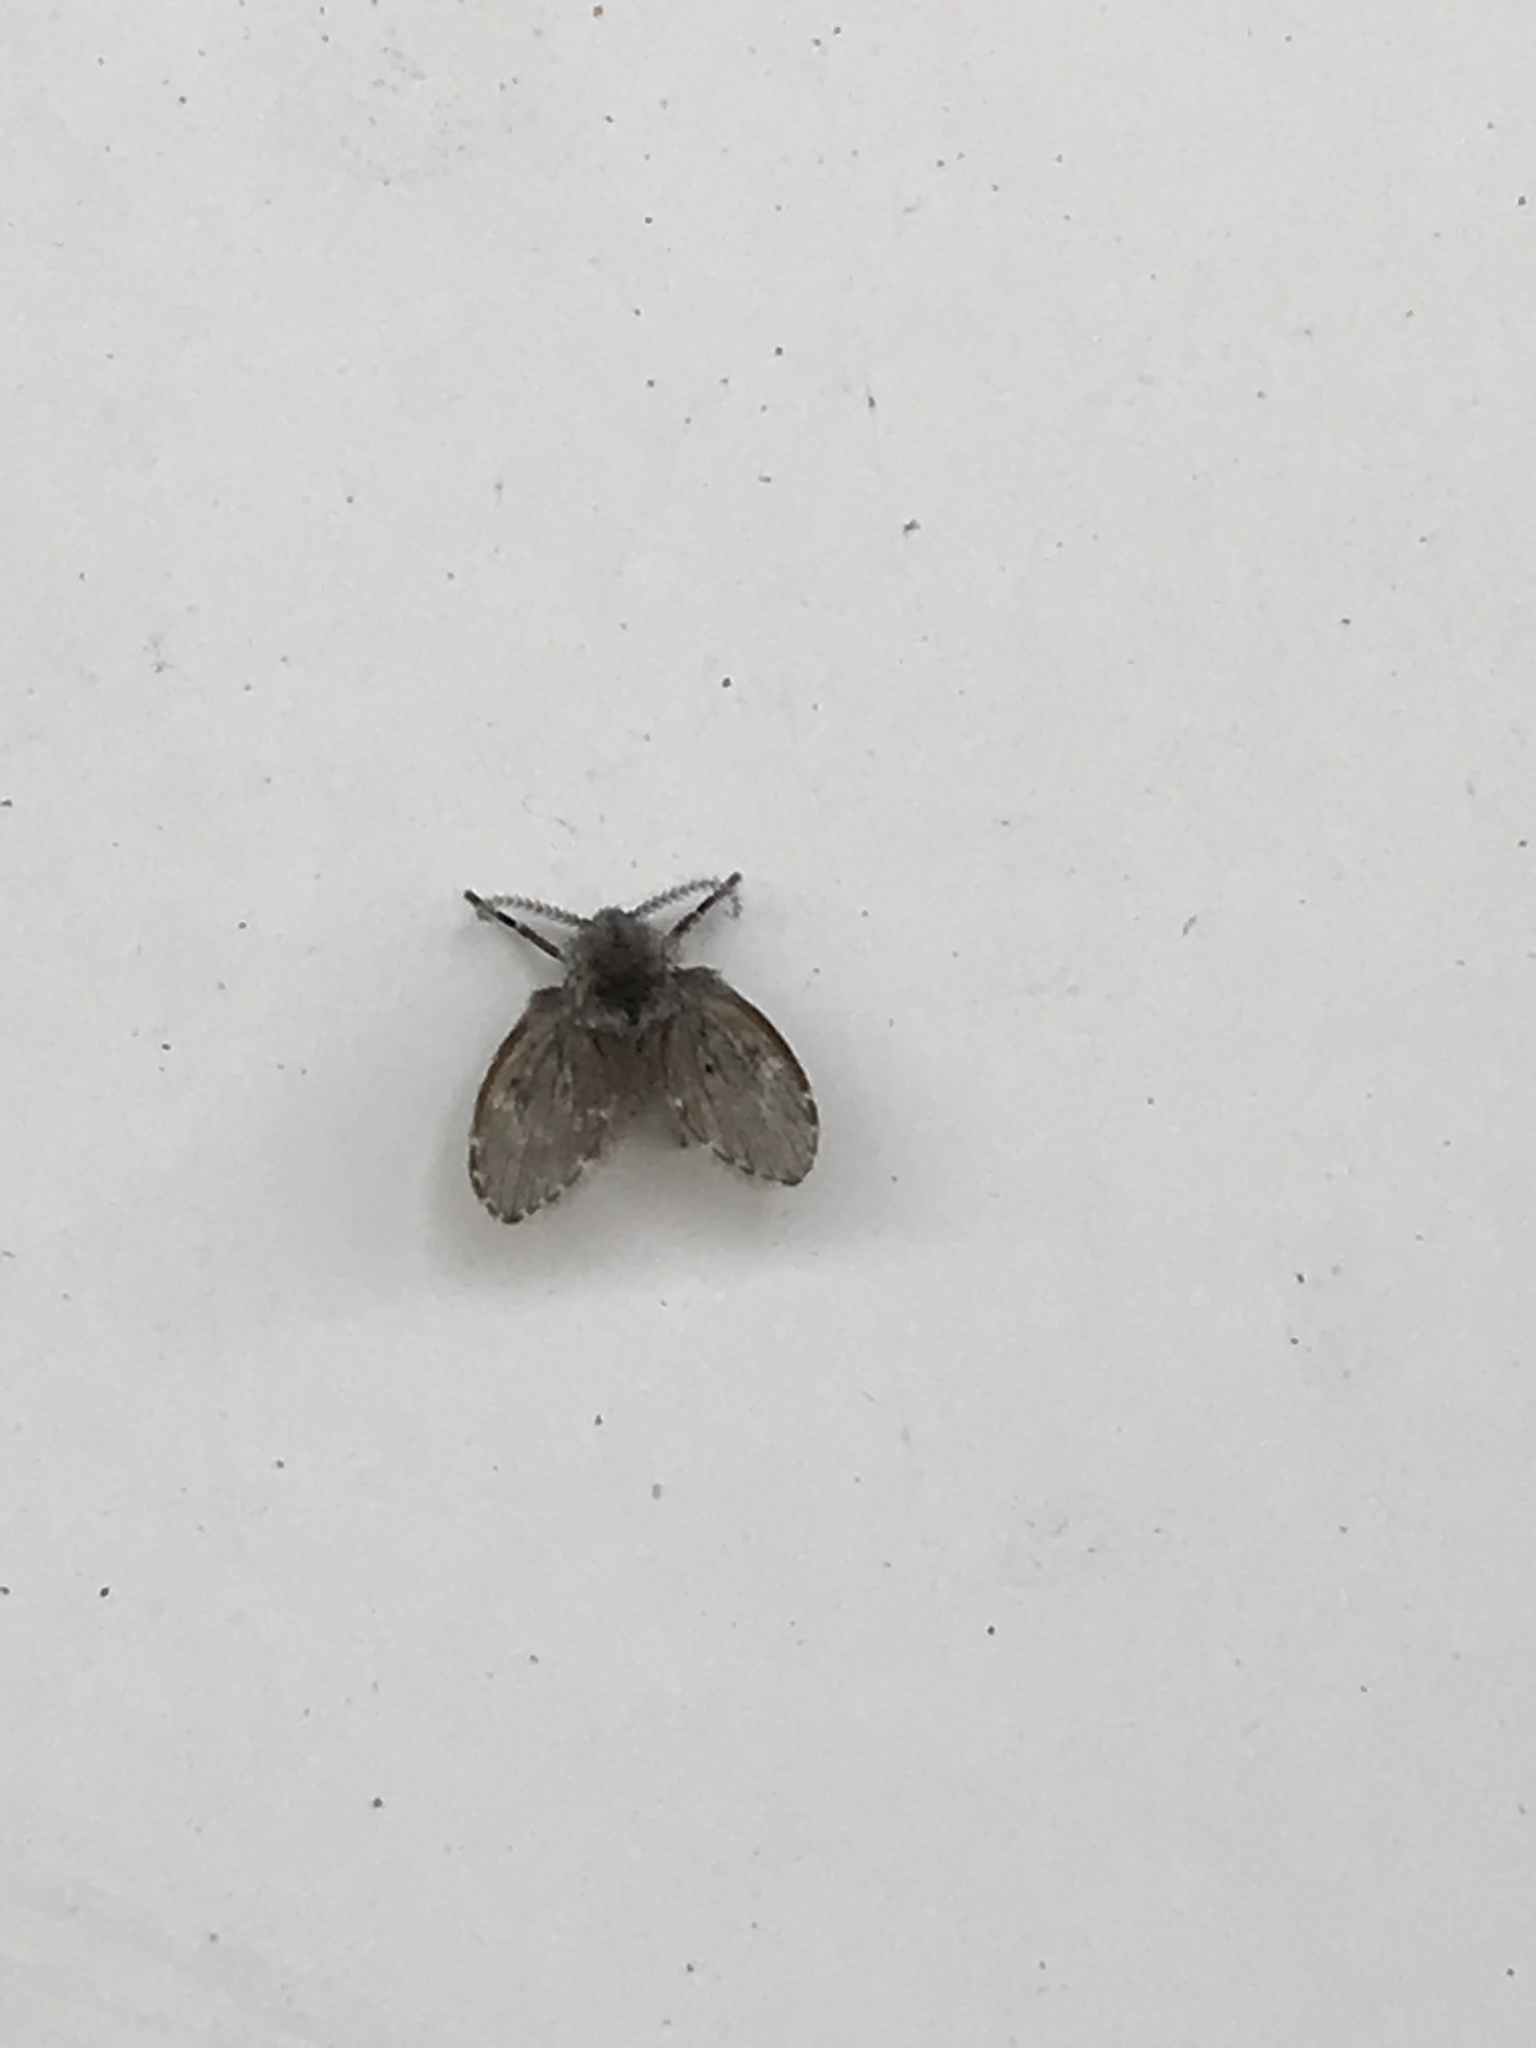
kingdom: Animalia
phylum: Arthropoda
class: Insecta
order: Diptera
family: Psychodidae
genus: Clogmia
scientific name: Clogmia albipunctatus
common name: White-spotted moth fly
